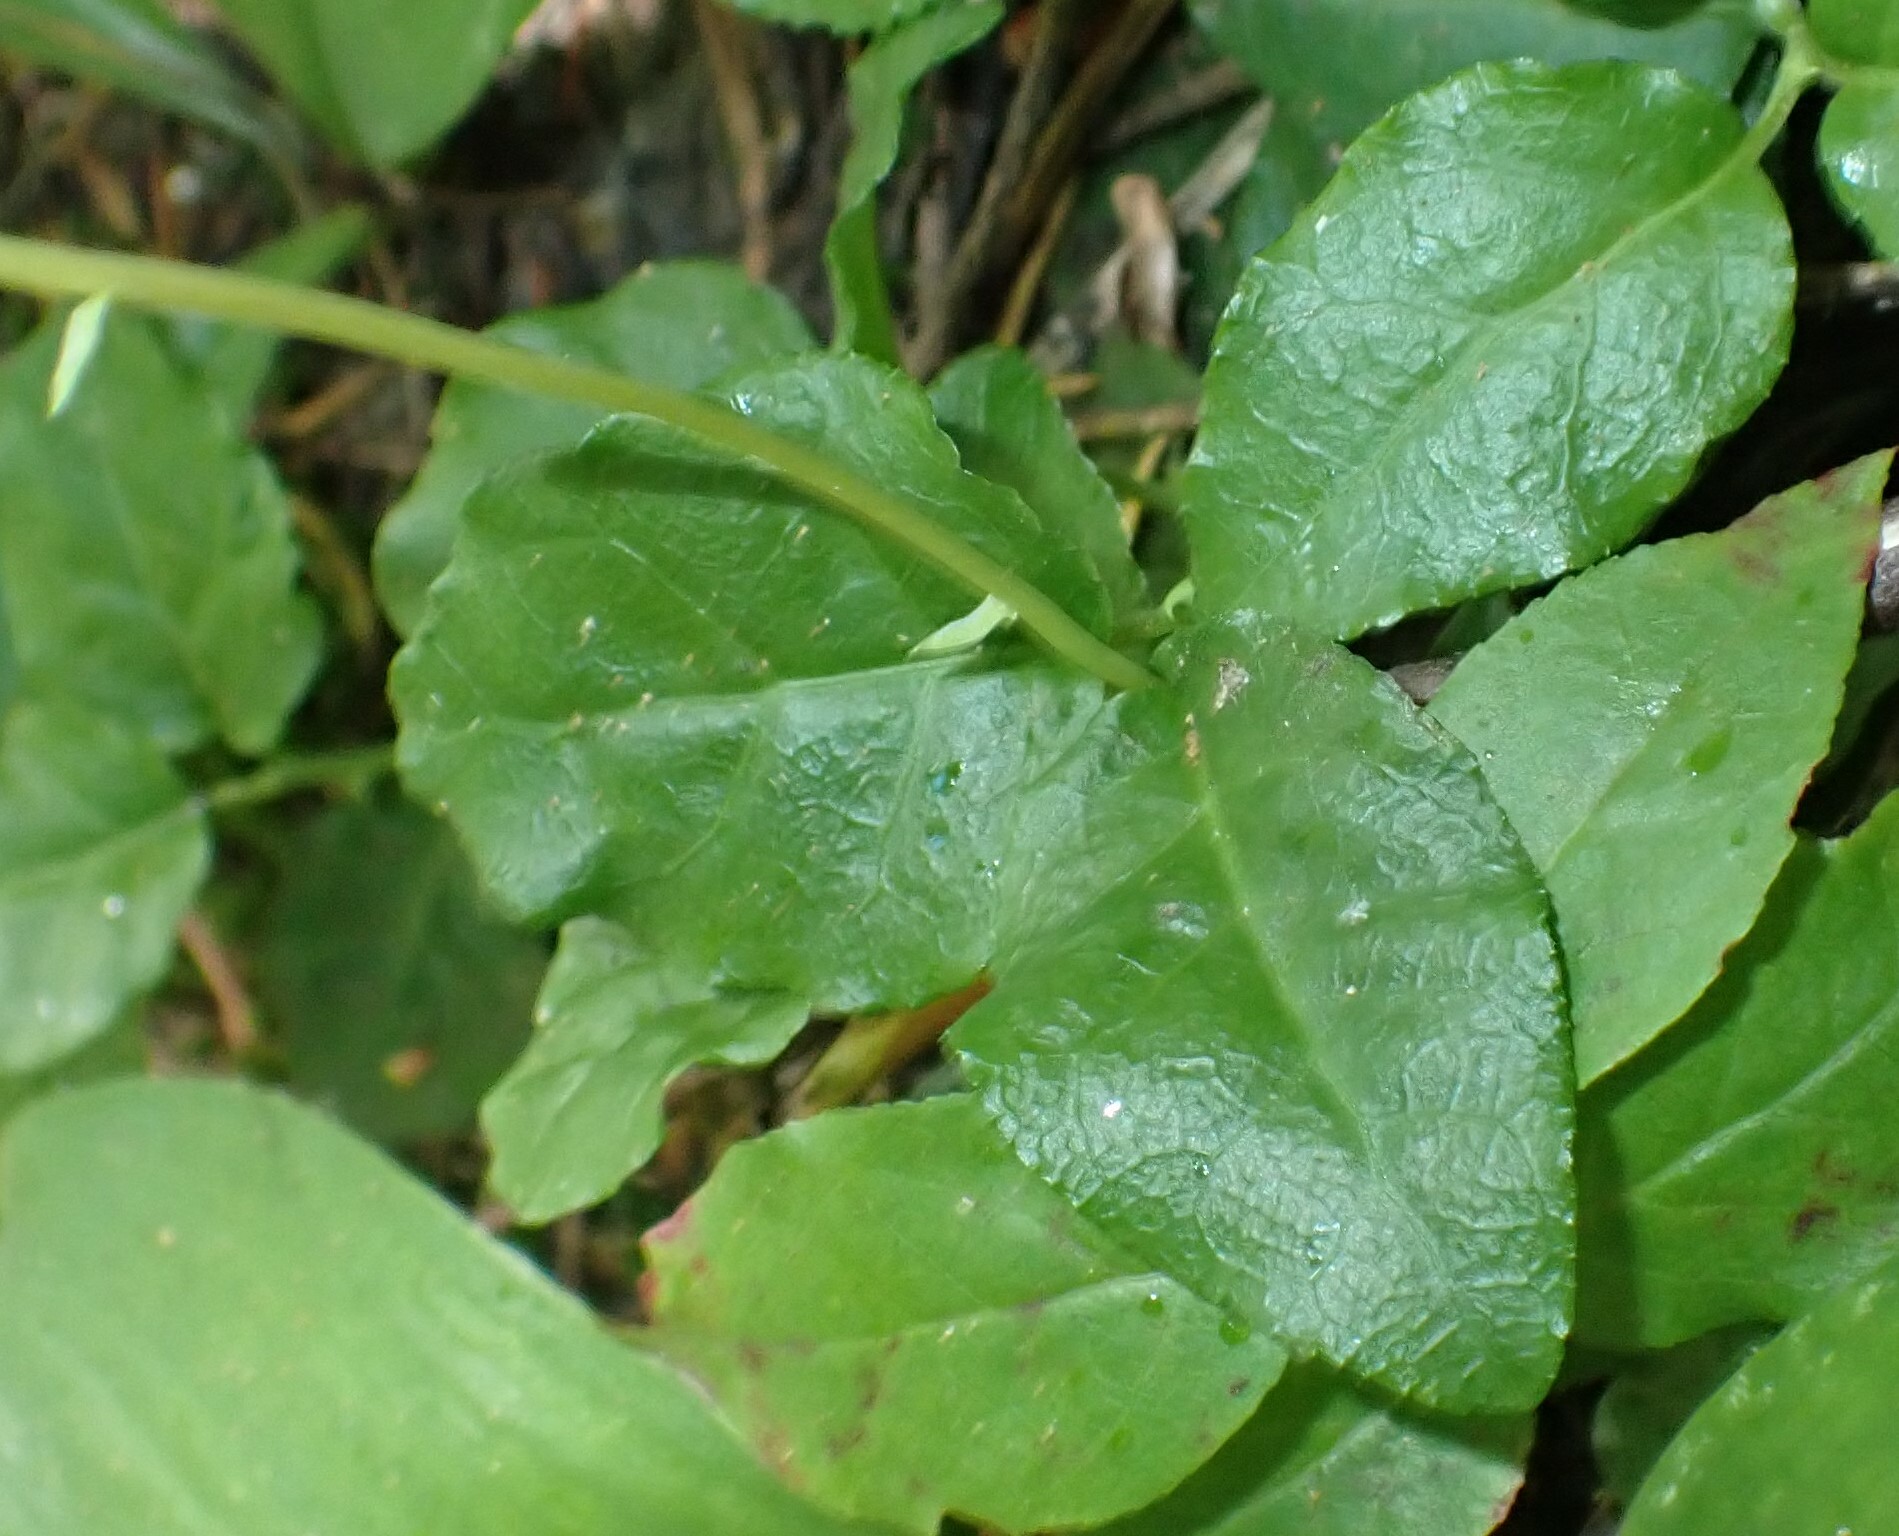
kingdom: Plantae
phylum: Tracheophyta
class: Magnoliopsida
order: Ericales
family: Ericaceae
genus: Orthilia
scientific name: Orthilia secunda
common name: One-sided orthilia
